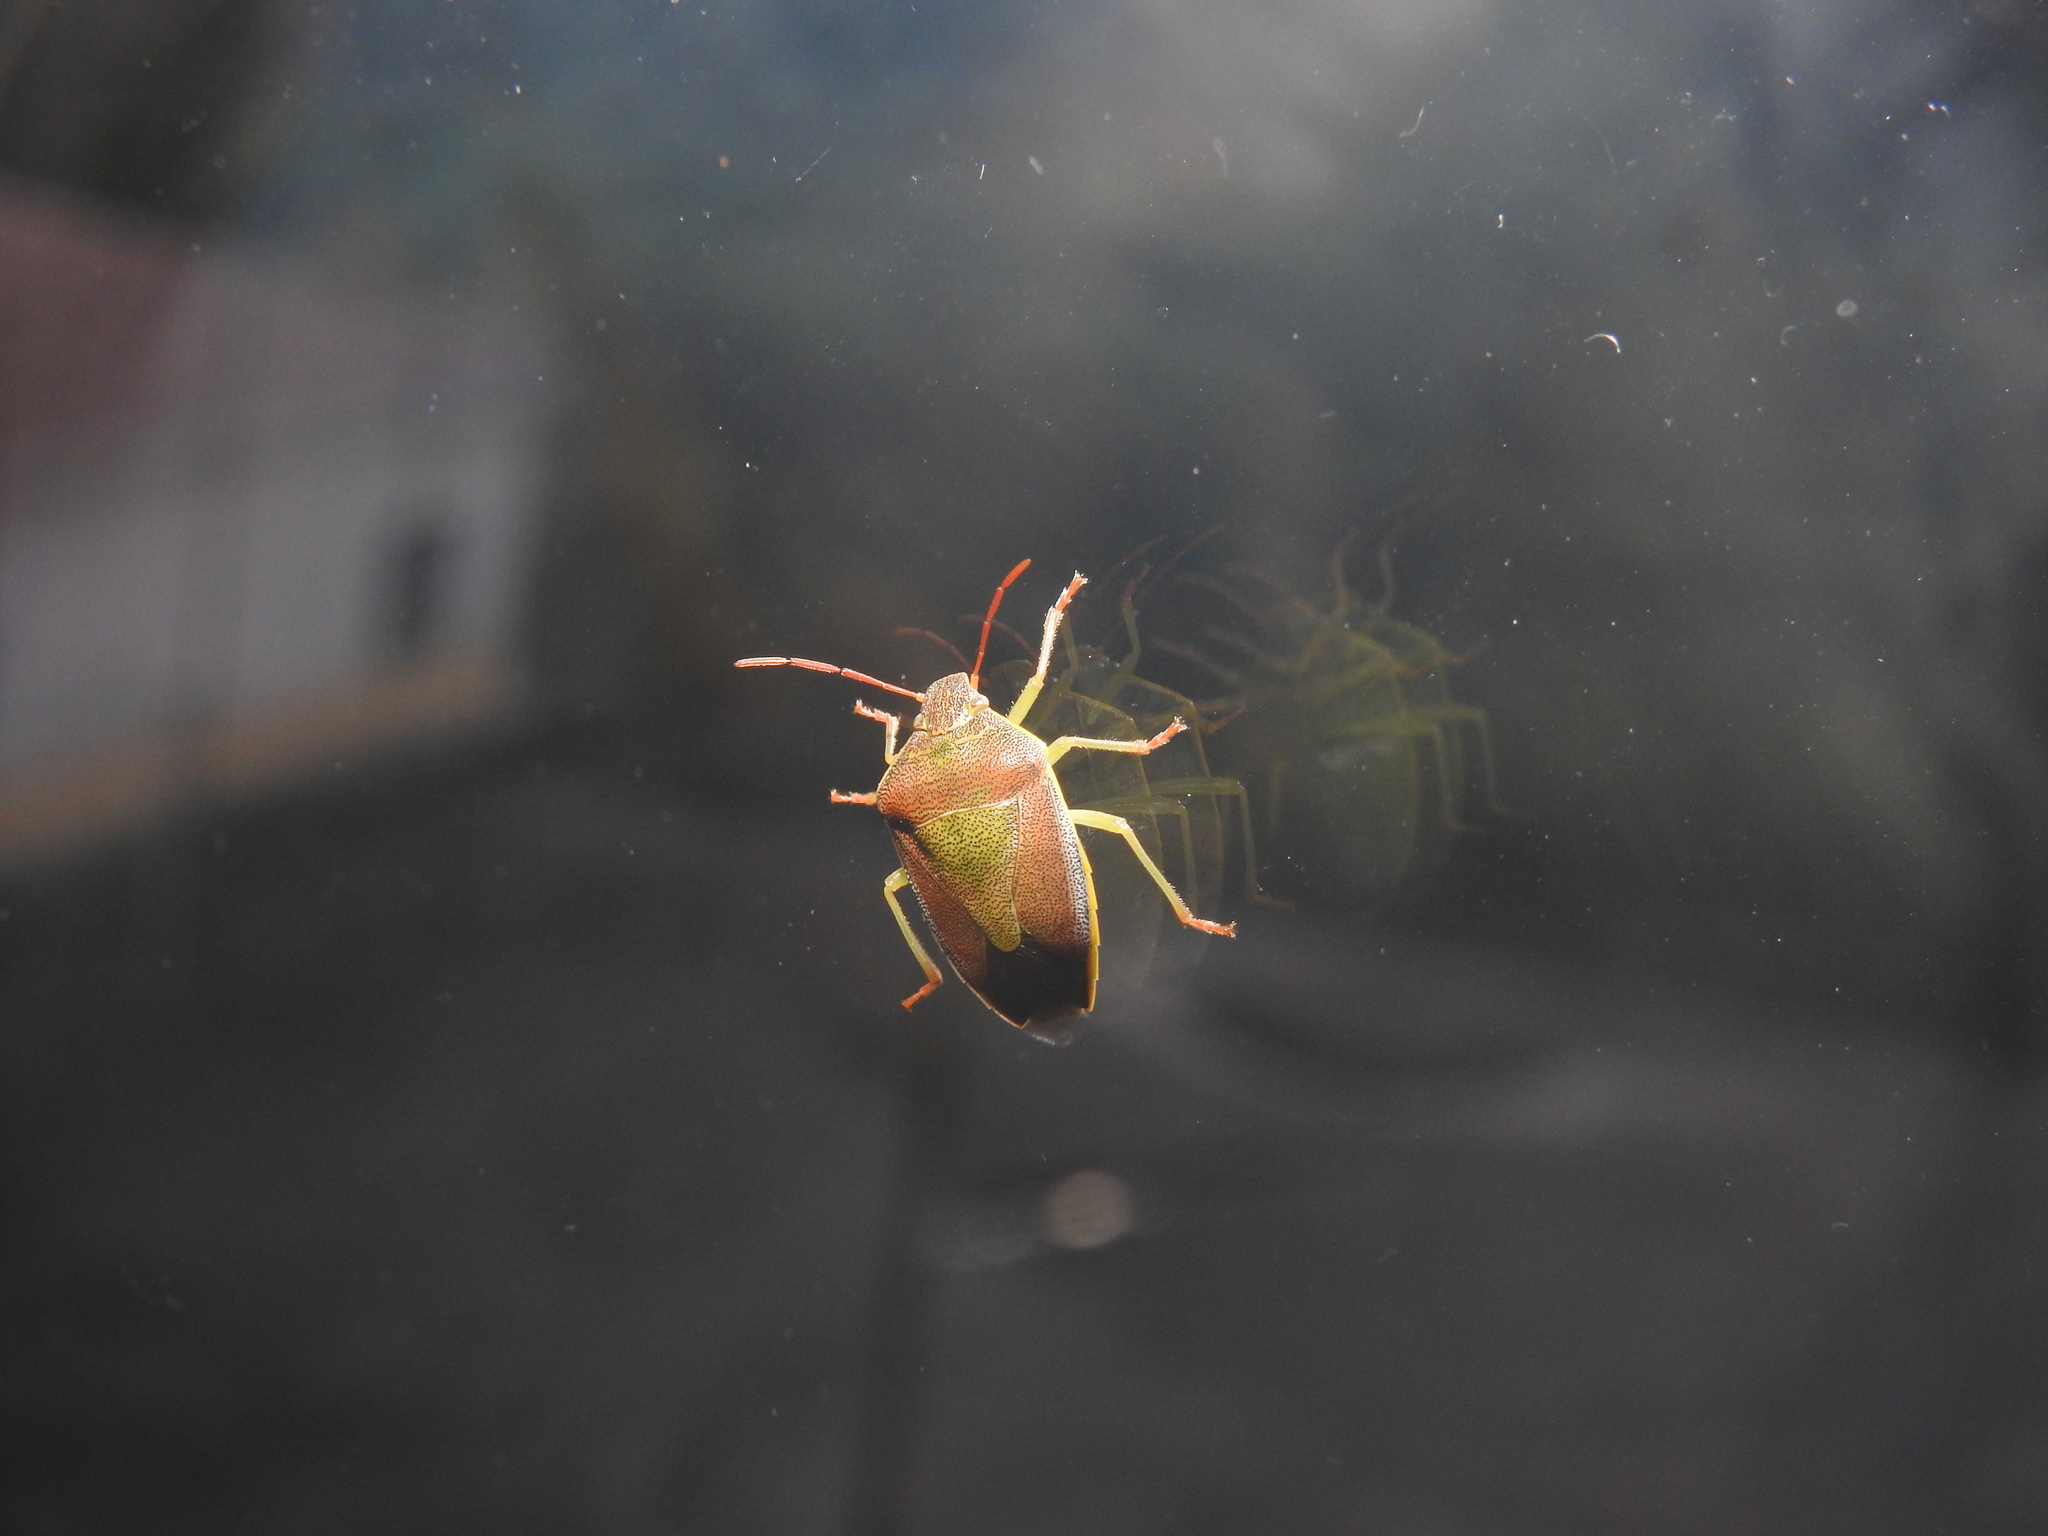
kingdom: Animalia
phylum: Arthropoda
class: Insecta
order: Hemiptera
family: Pentatomidae
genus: Piezodorus
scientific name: Piezodorus lituratus
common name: Stink bug
